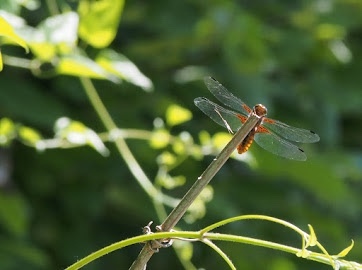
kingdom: Animalia
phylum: Arthropoda
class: Insecta
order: Odonata
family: Libellulidae
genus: Libellula
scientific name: Libellula depressa
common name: Broad-bodied chaser
